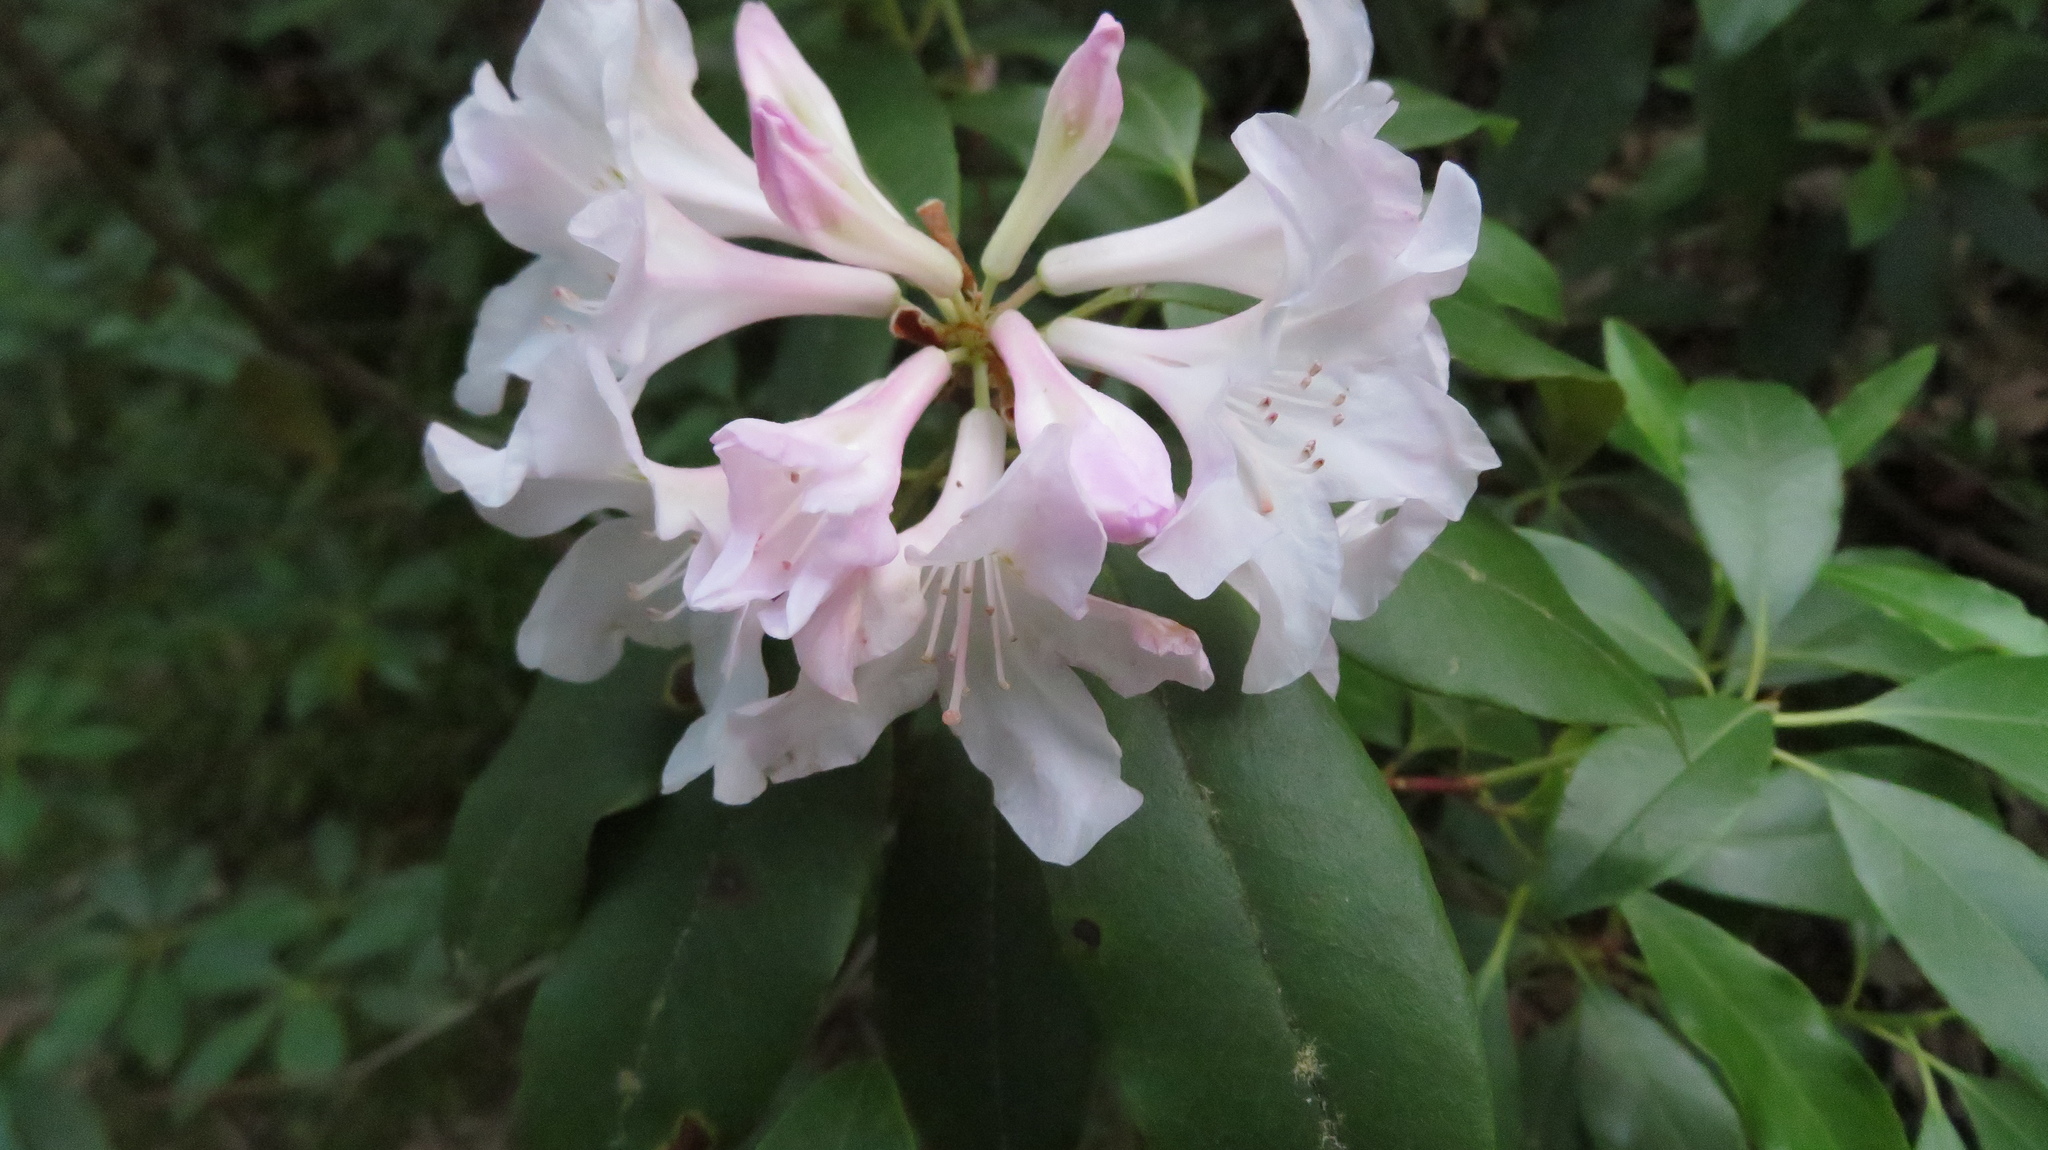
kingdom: Plantae
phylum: Tracheophyta
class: Magnoliopsida
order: Ericales
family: Ericaceae
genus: Rhododendron
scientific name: Rhododendron minus
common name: Piedmont rhododendron
